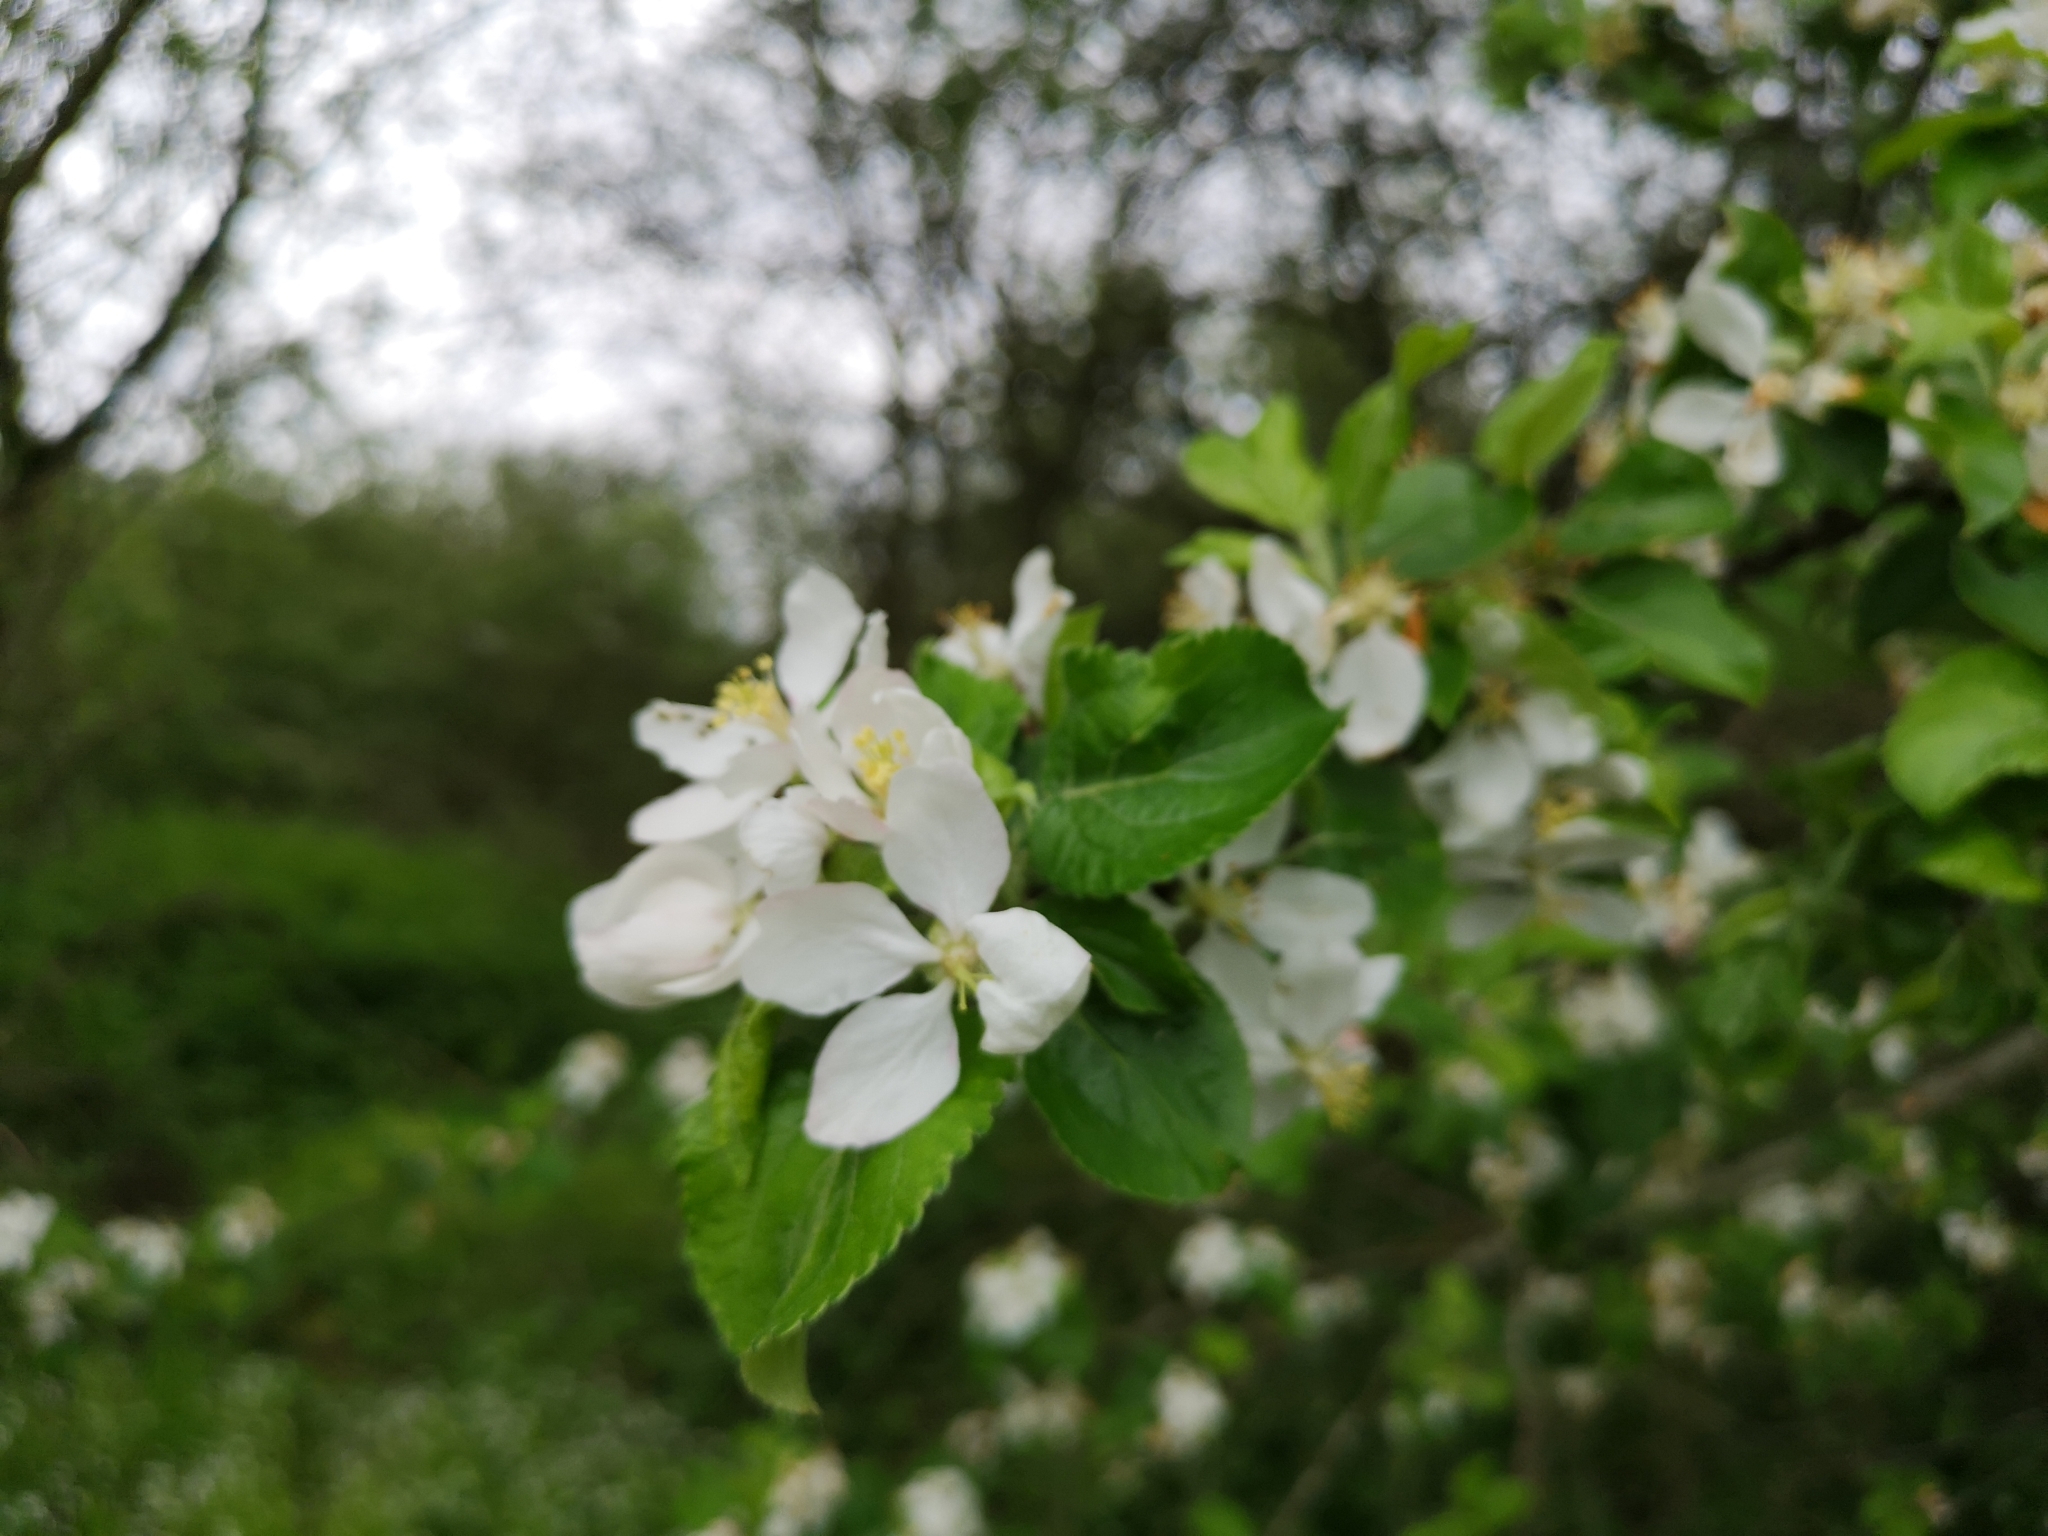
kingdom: Plantae
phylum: Tracheophyta
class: Magnoliopsida
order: Rosales
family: Rosaceae
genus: Malus
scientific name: Malus domestica
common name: Apple
